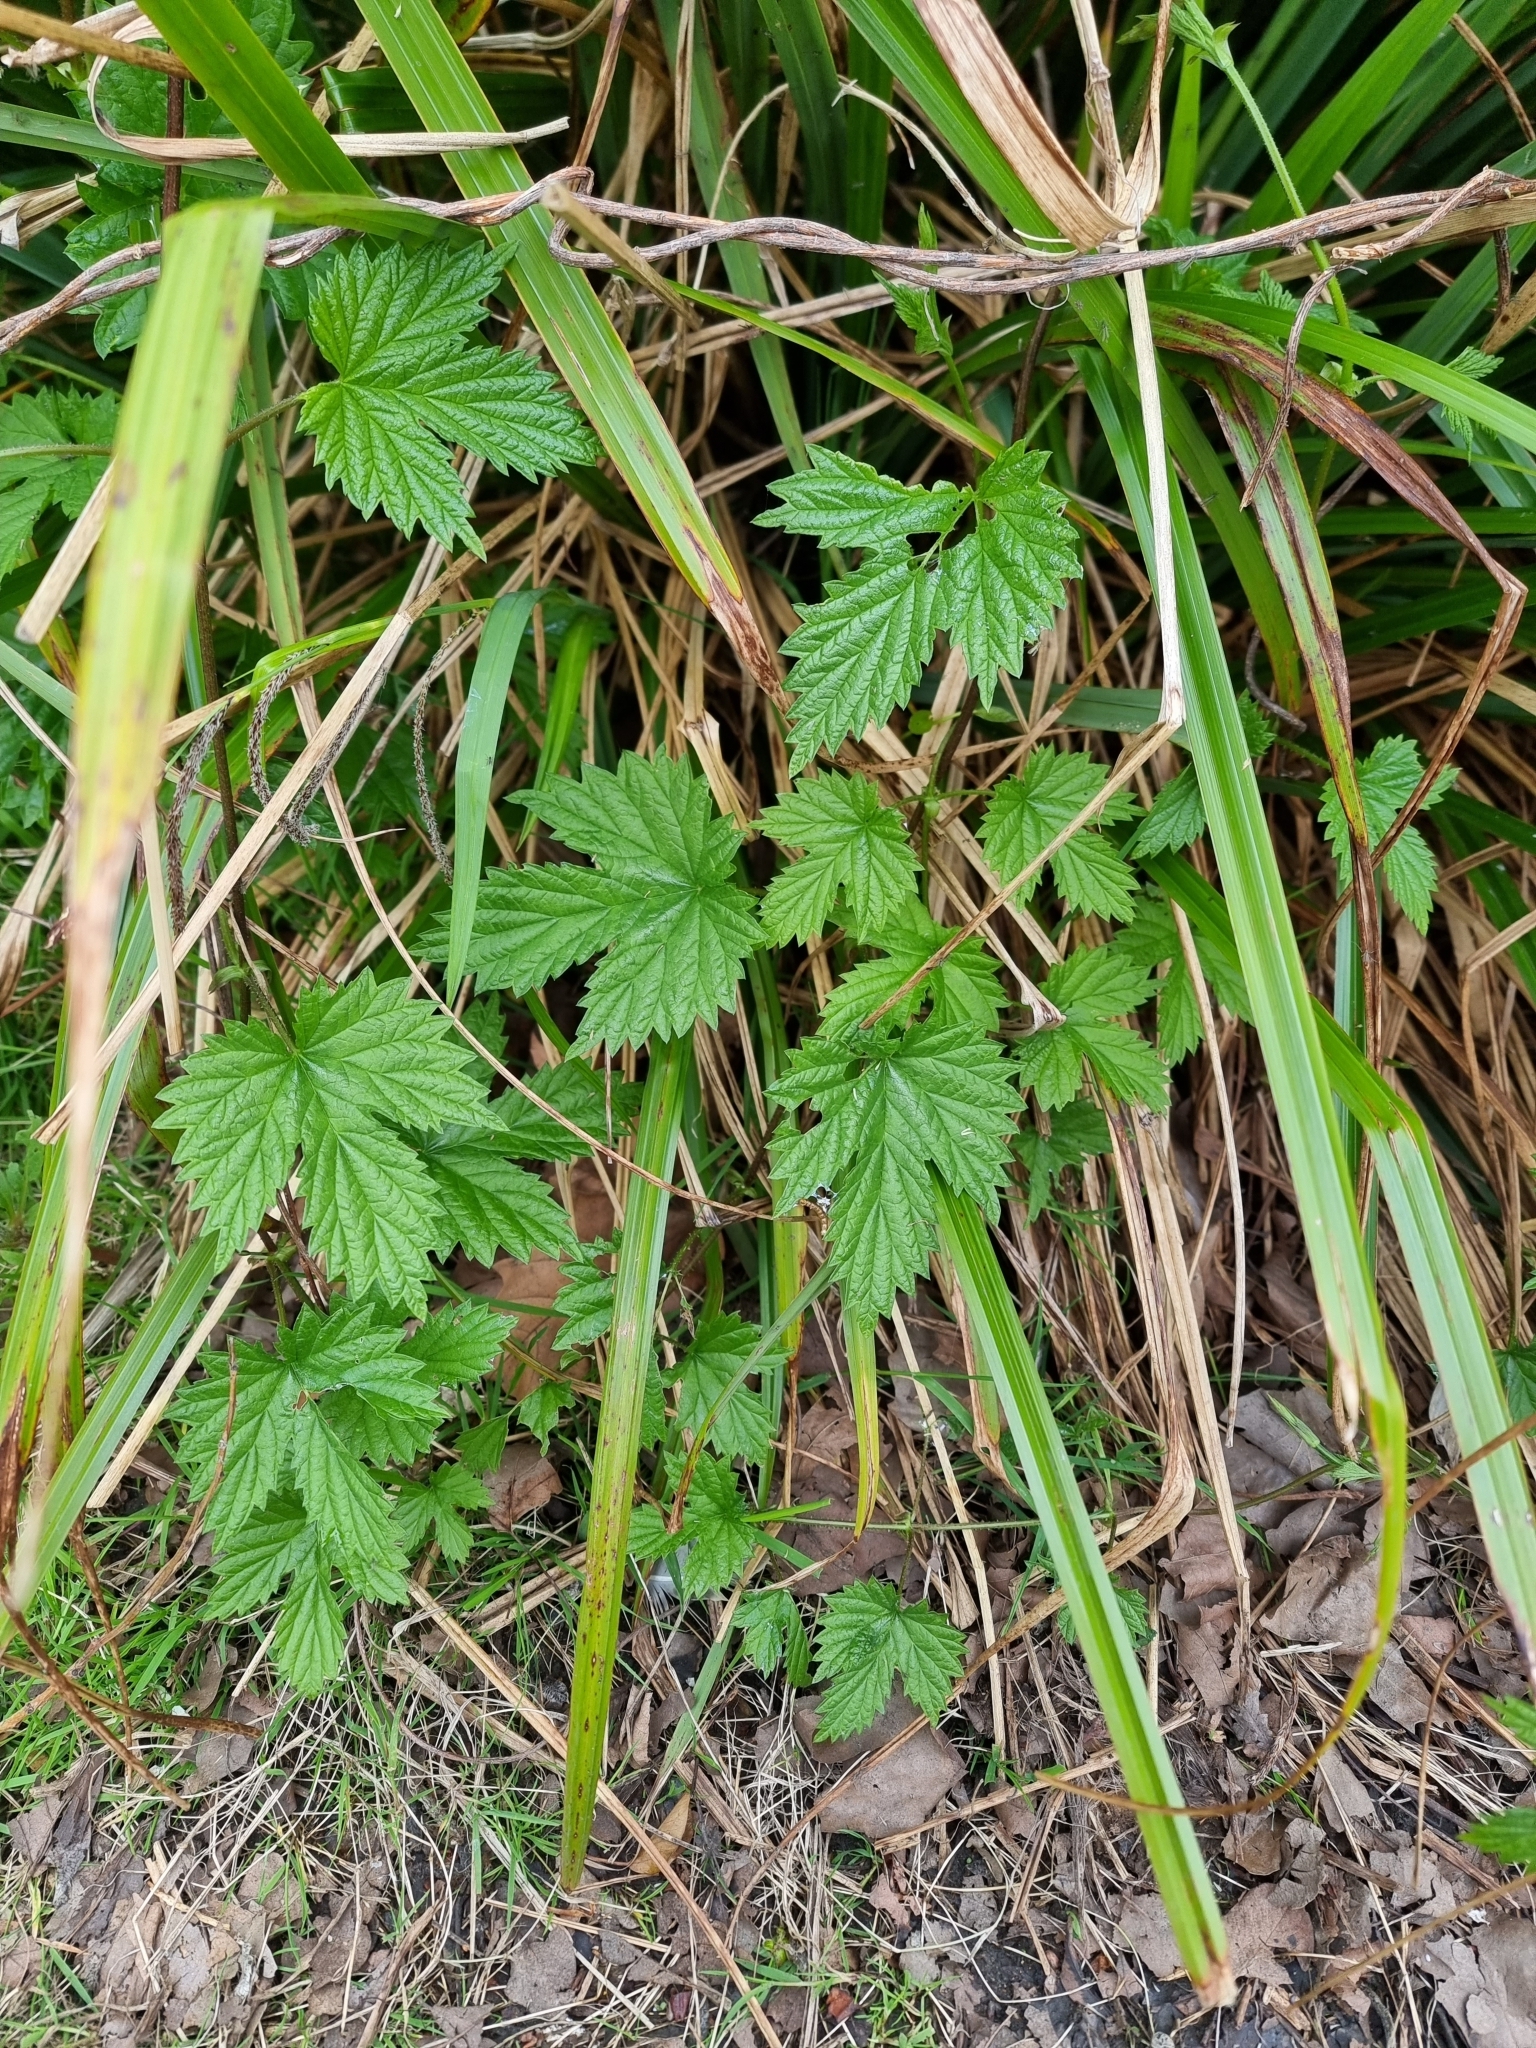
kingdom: Plantae
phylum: Tracheophyta
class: Magnoliopsida
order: Rosales
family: Cannabaceae
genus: Humulus
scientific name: Humulus lupulus
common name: Hop
